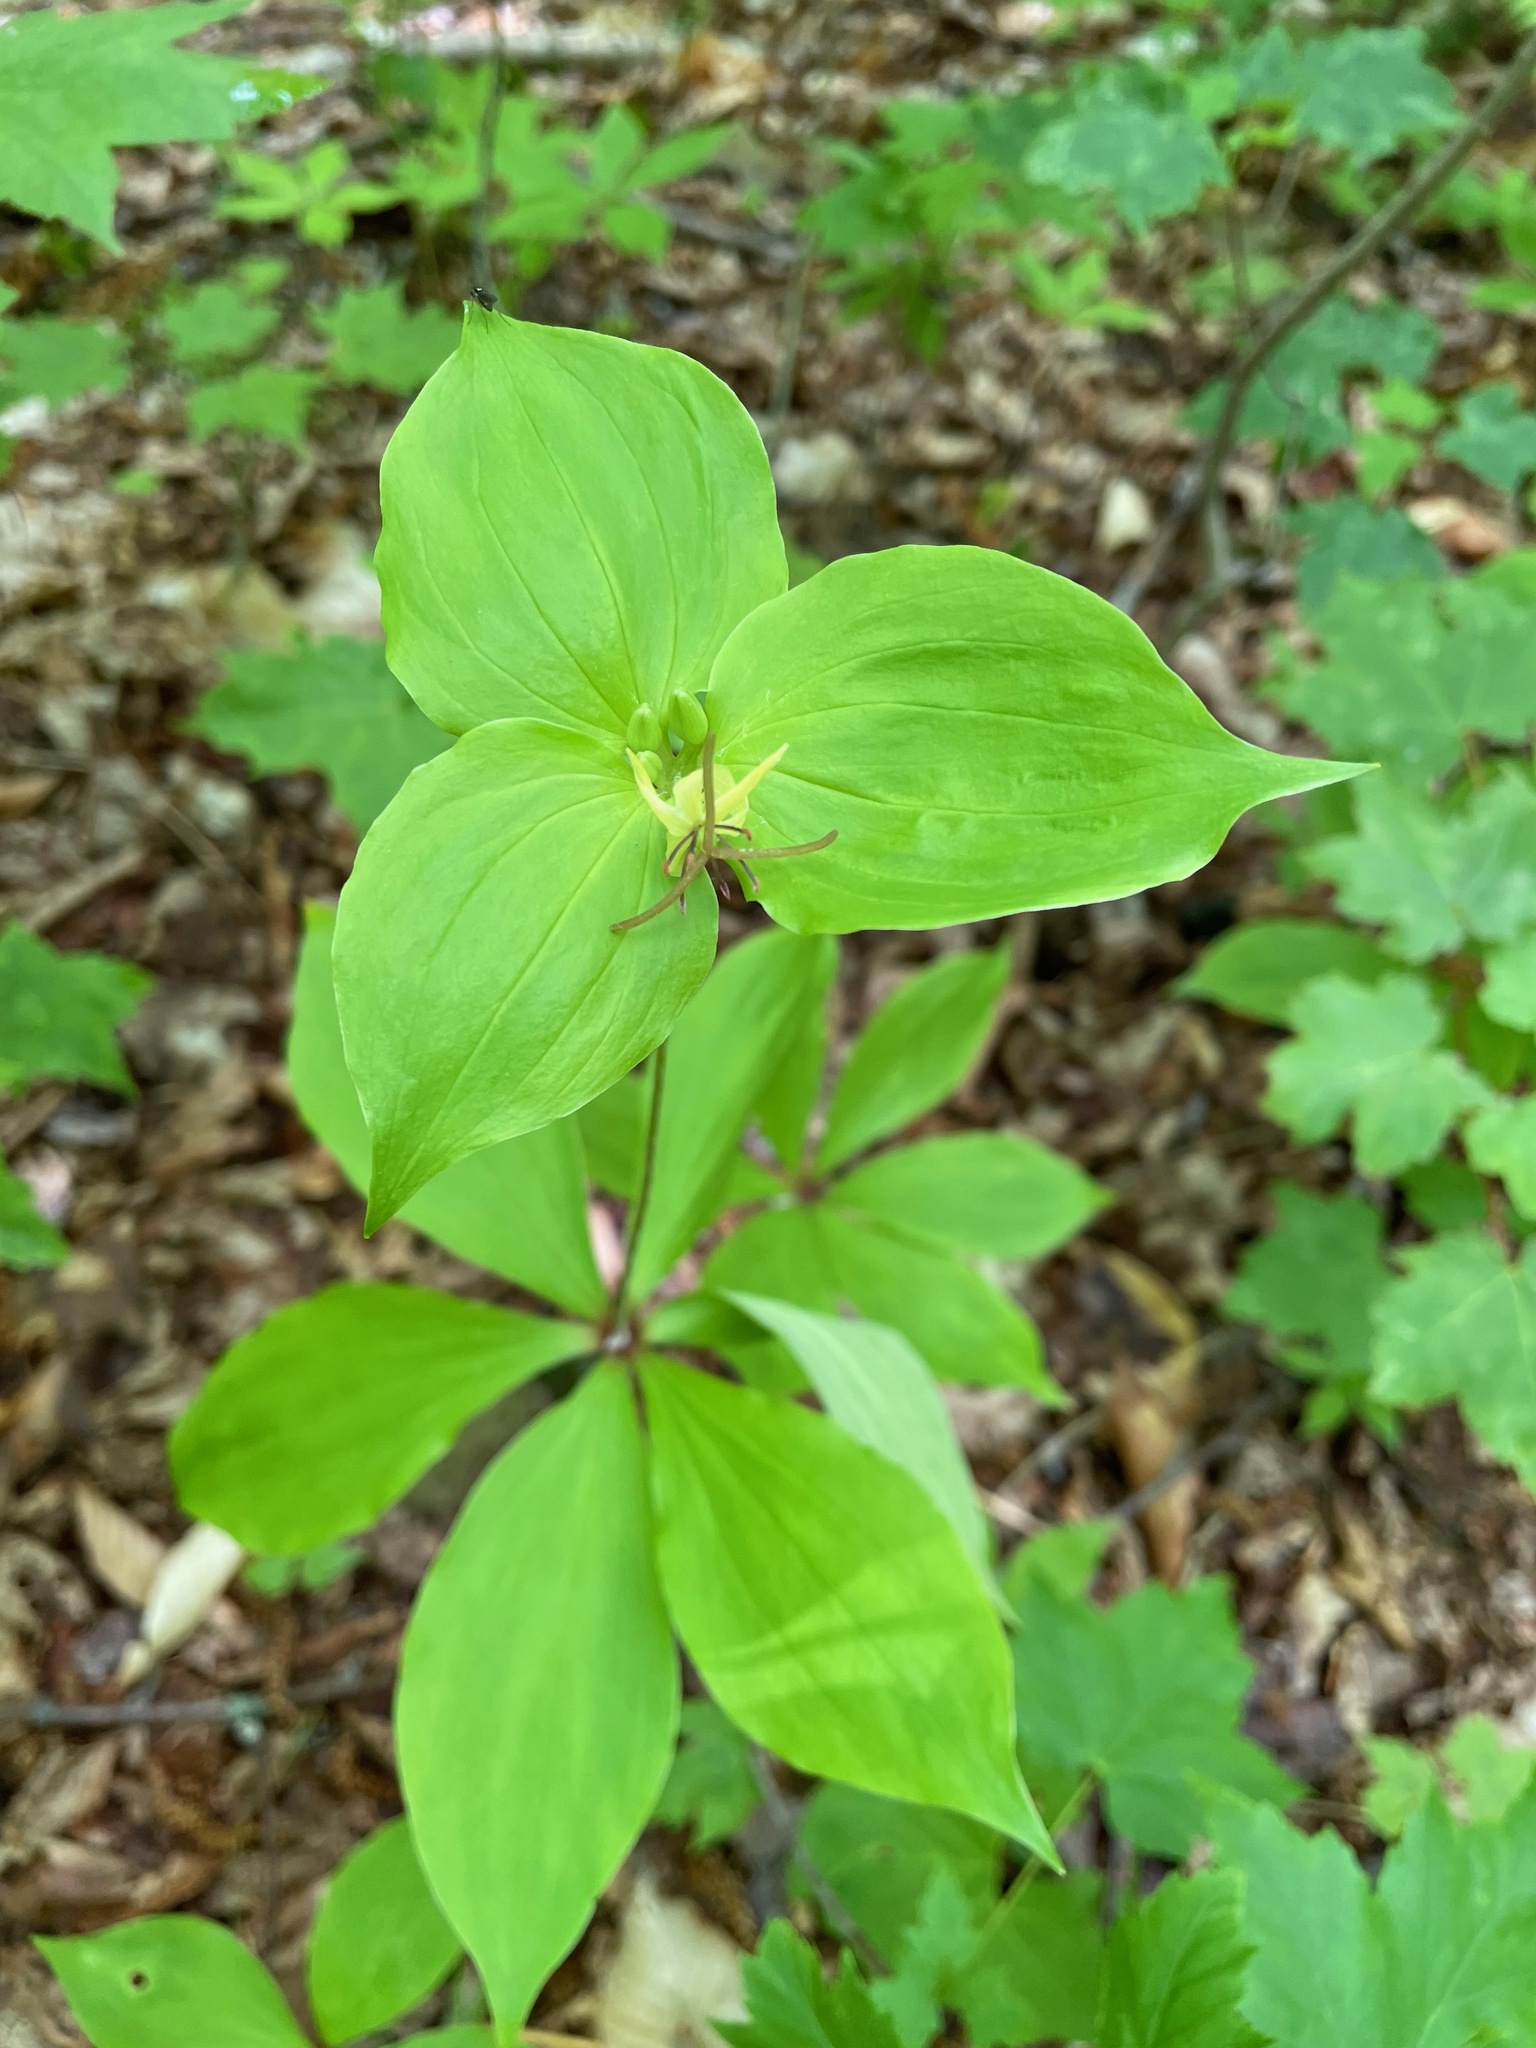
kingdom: Plantae
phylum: Tracheophyta
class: Liliopsida
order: Liliales
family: Liliaceae
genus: Medeola
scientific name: Medeola virginiana
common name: Indian cucumber-root
